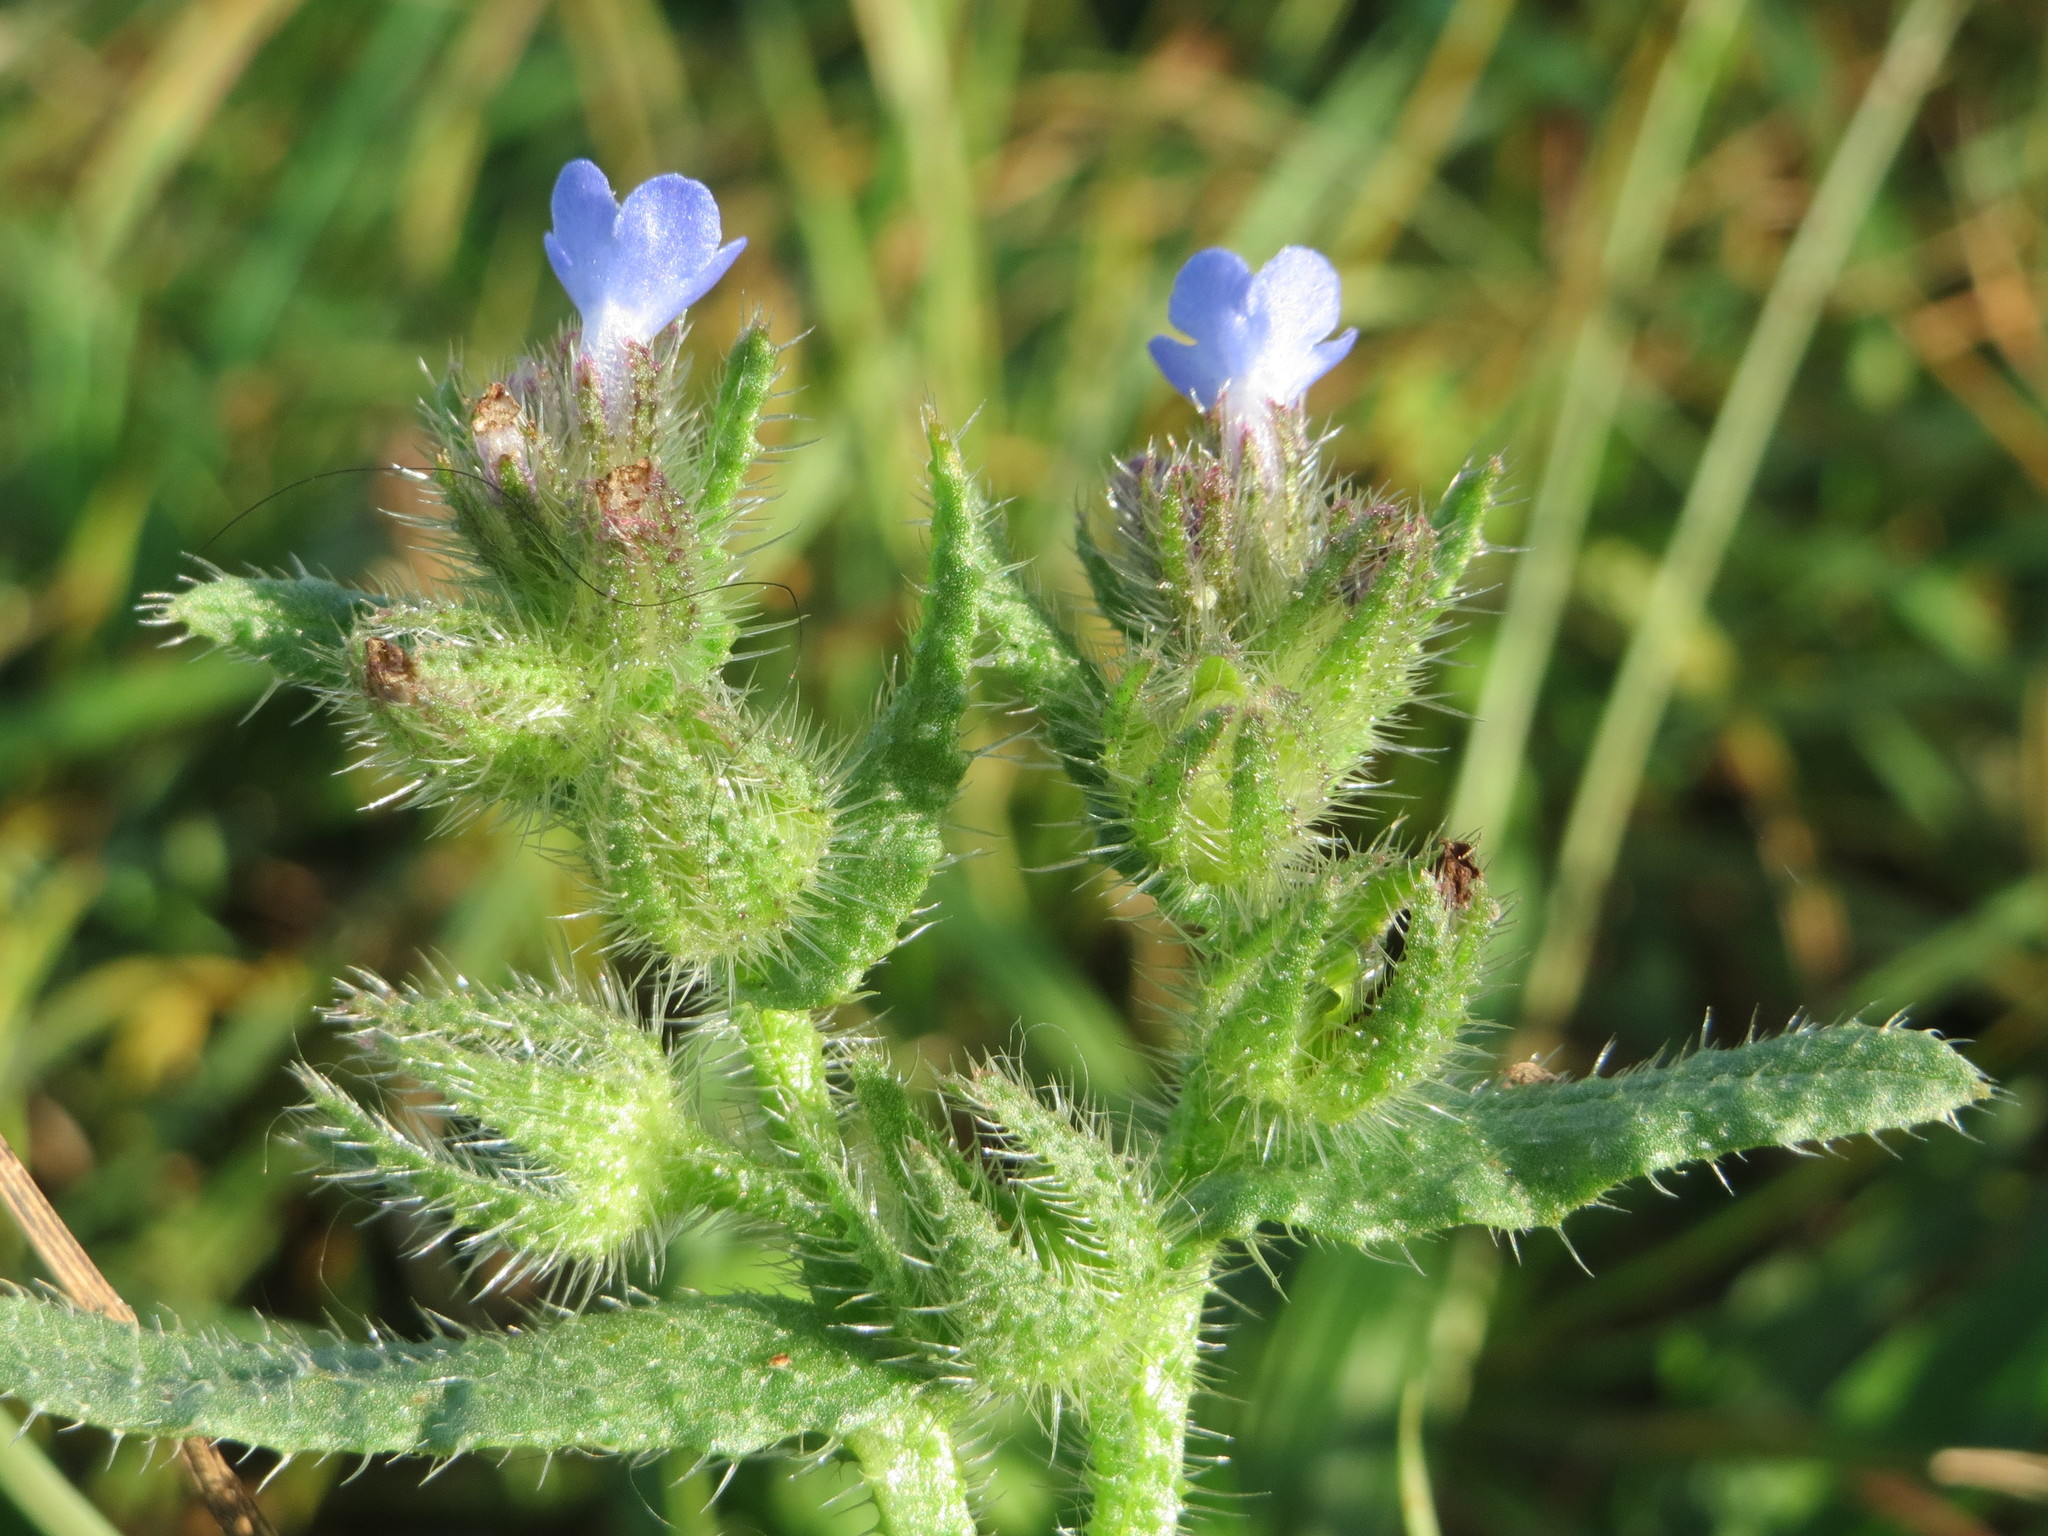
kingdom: Plantae
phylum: Tracheophyta
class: Magnoliopsida
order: Boraginales
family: Boraginaceae
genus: Lycopsis
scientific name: Lycopsis arvensis
